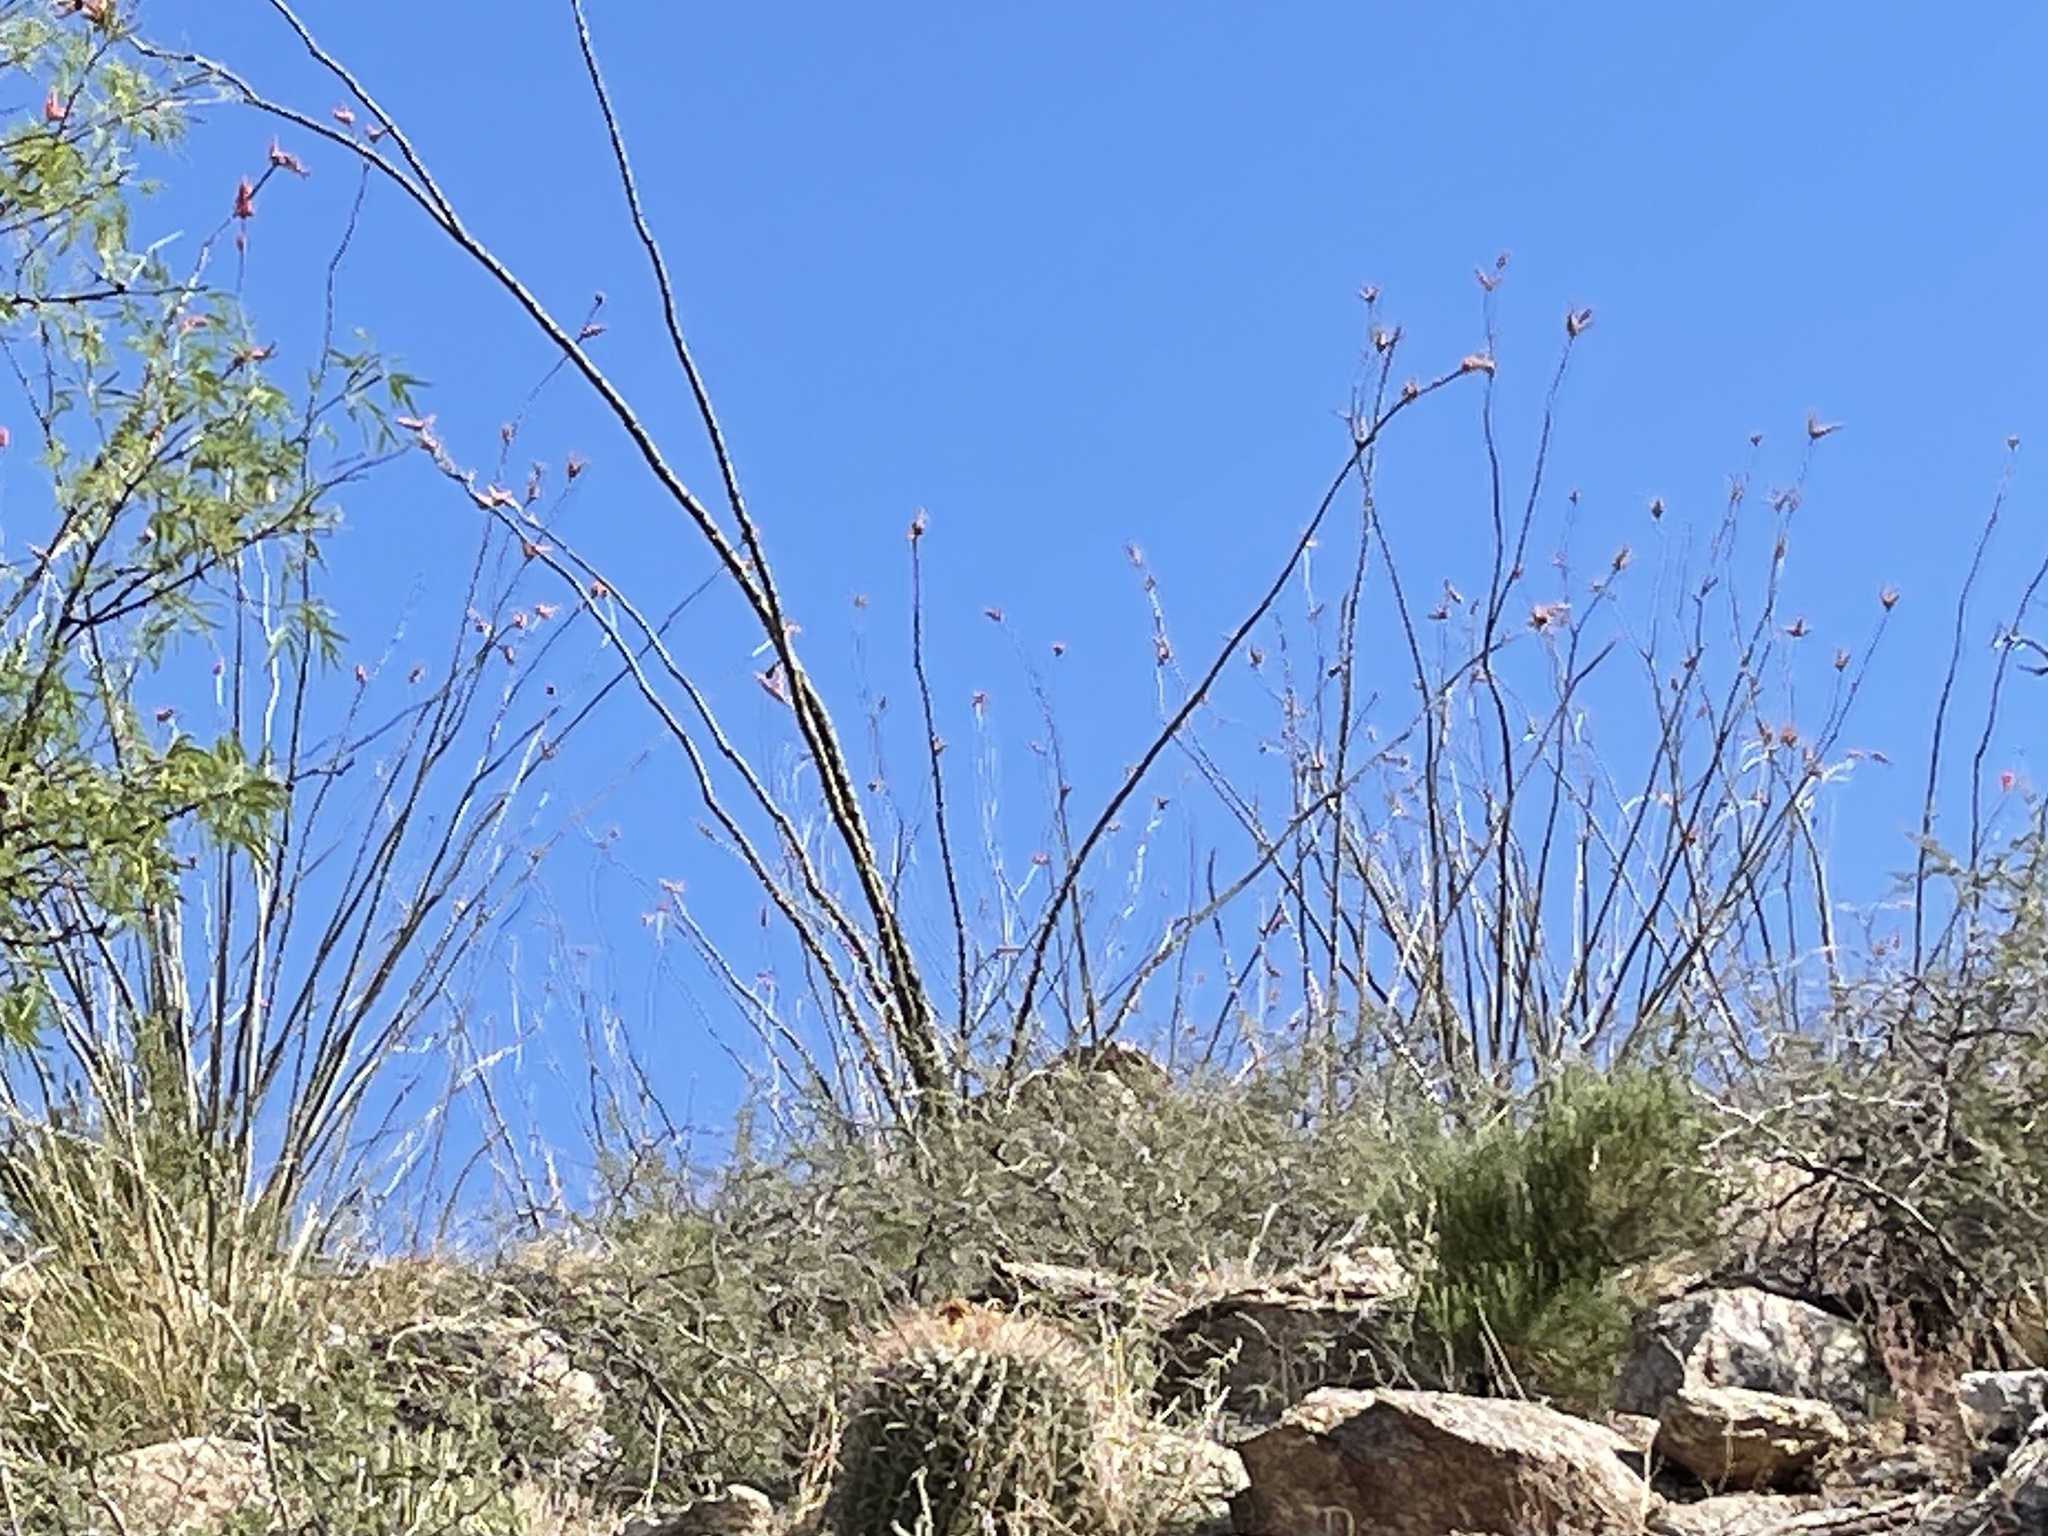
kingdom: Plantae
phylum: Tracheophyta
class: Magnoliopsida
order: Ericales
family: Fouquieriaceae
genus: Fouquieria
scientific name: Fouquieria splendens
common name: Vine-cactus
